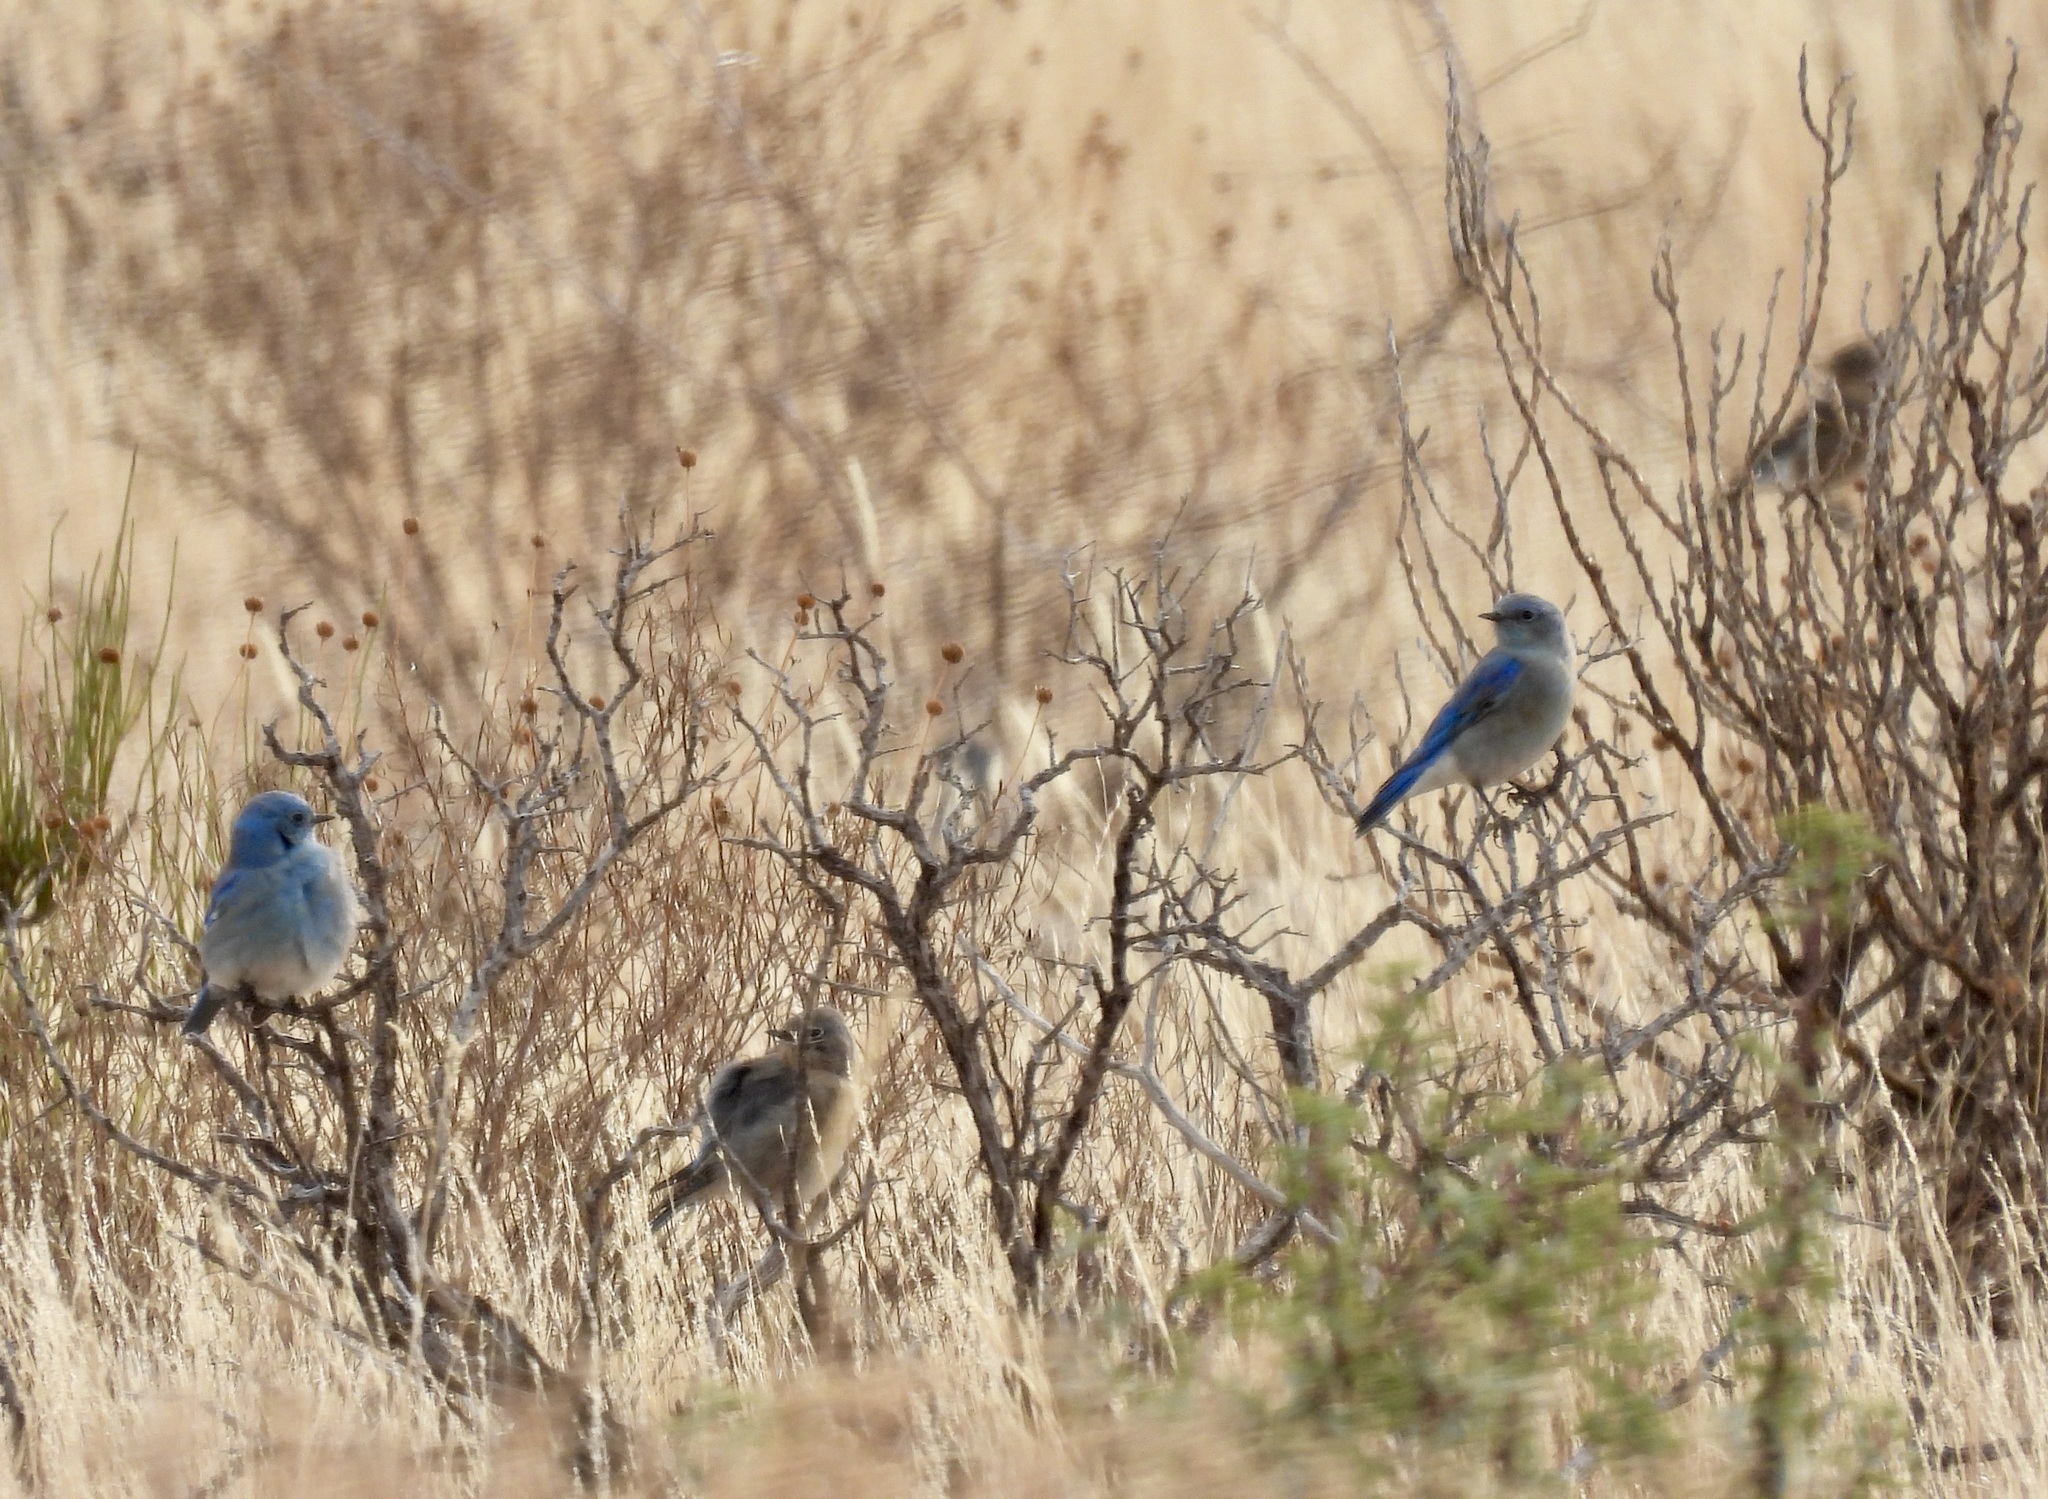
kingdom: Animalia
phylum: Chordata
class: Aves
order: Passeriformes
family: Turdidae
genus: Sialia
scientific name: Sialia currucoides
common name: Mountain bluebird
